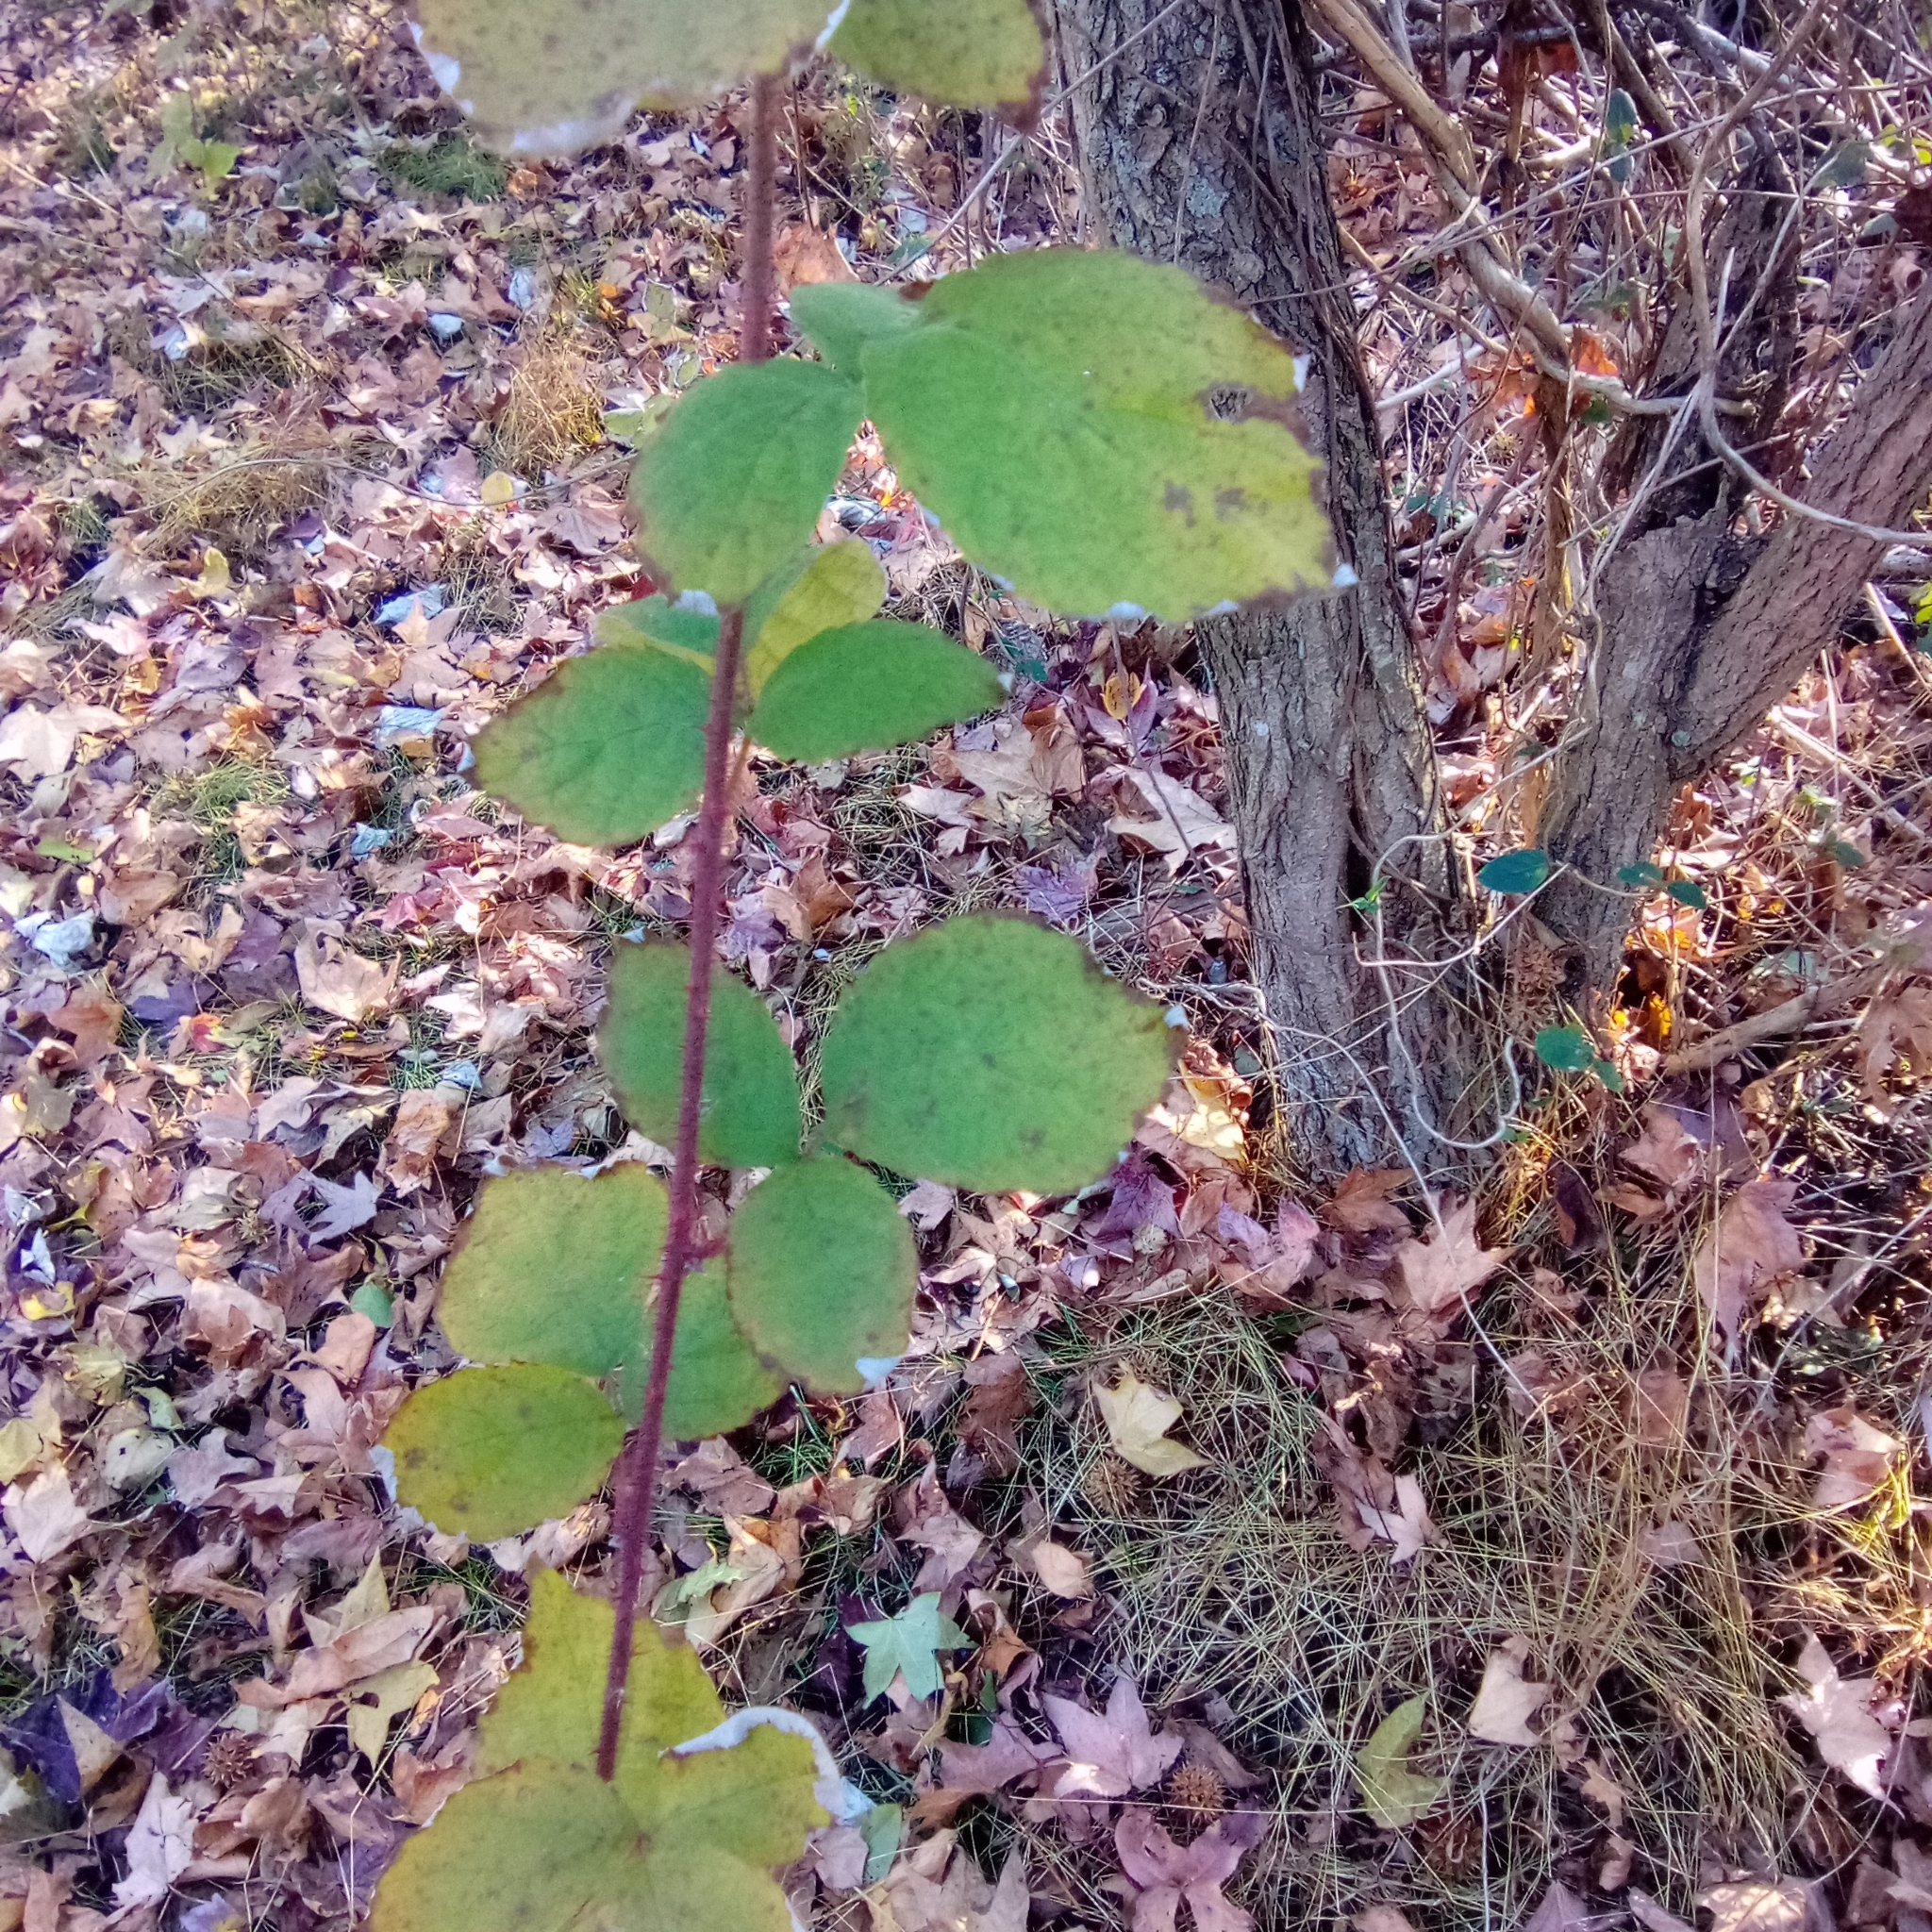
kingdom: Plantae
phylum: Tracheophyta
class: Magnoliopsida
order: Rosales
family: Rosaceae
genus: Rubus
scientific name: Rubus phoenicolasius
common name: Japanese wineberry
